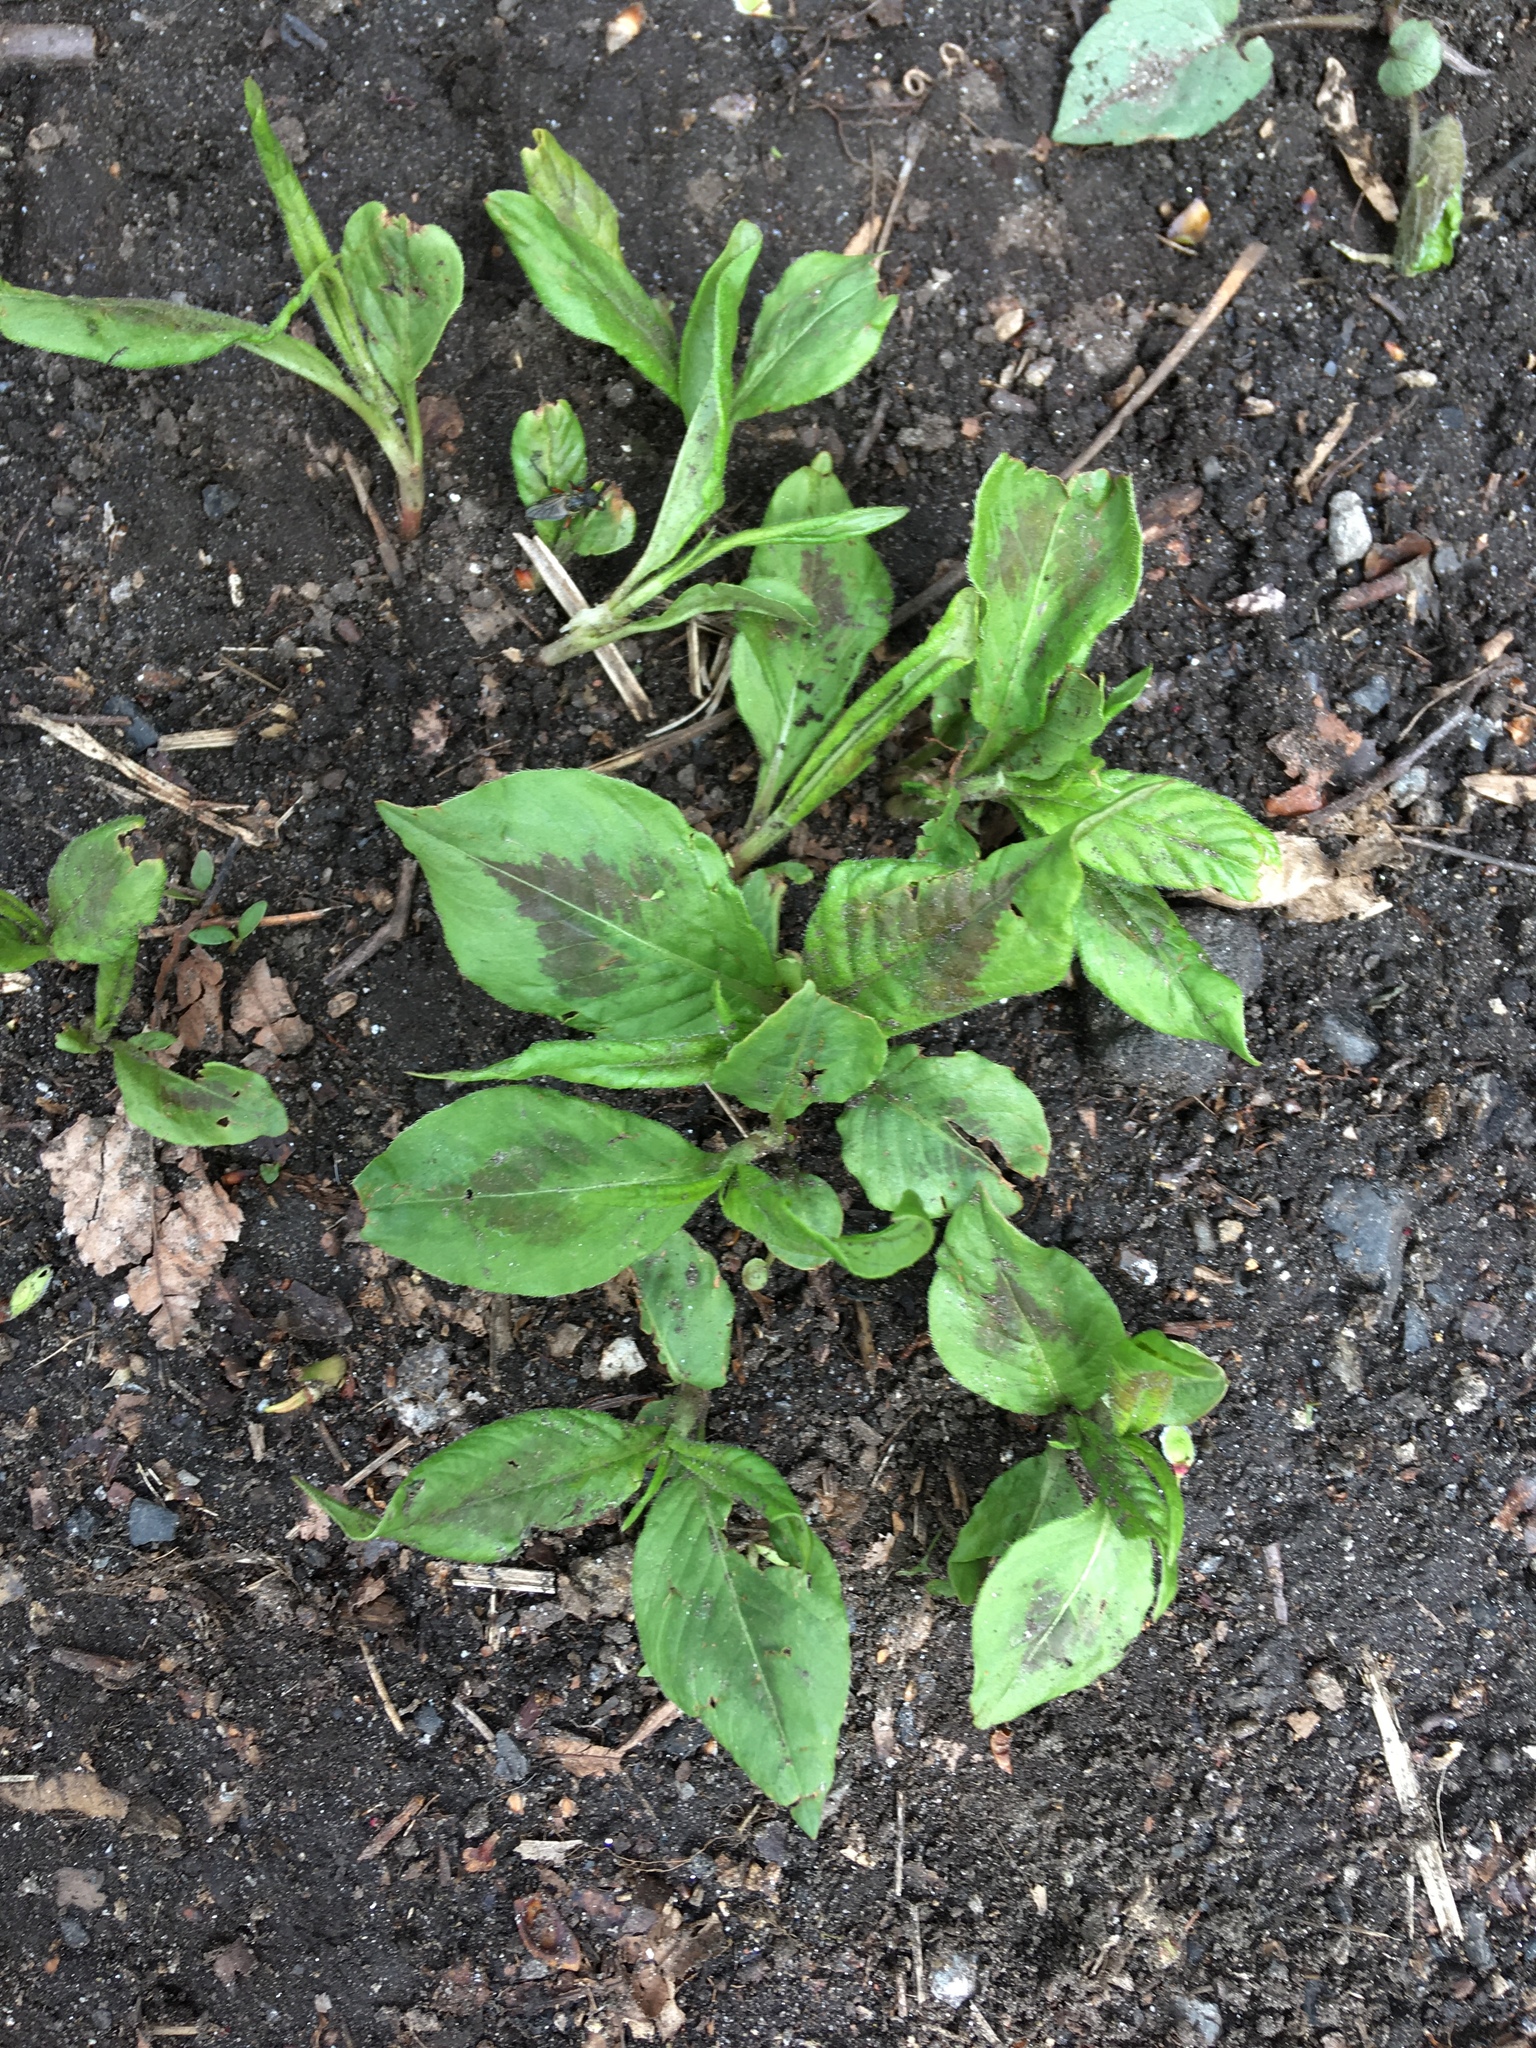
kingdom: Plantae
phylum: Tracheophyta
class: Magnoliopsida
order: Caryophyllales
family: Polygonaceae
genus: Persicaria
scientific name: Persicaria virginiana
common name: Jumpseed
